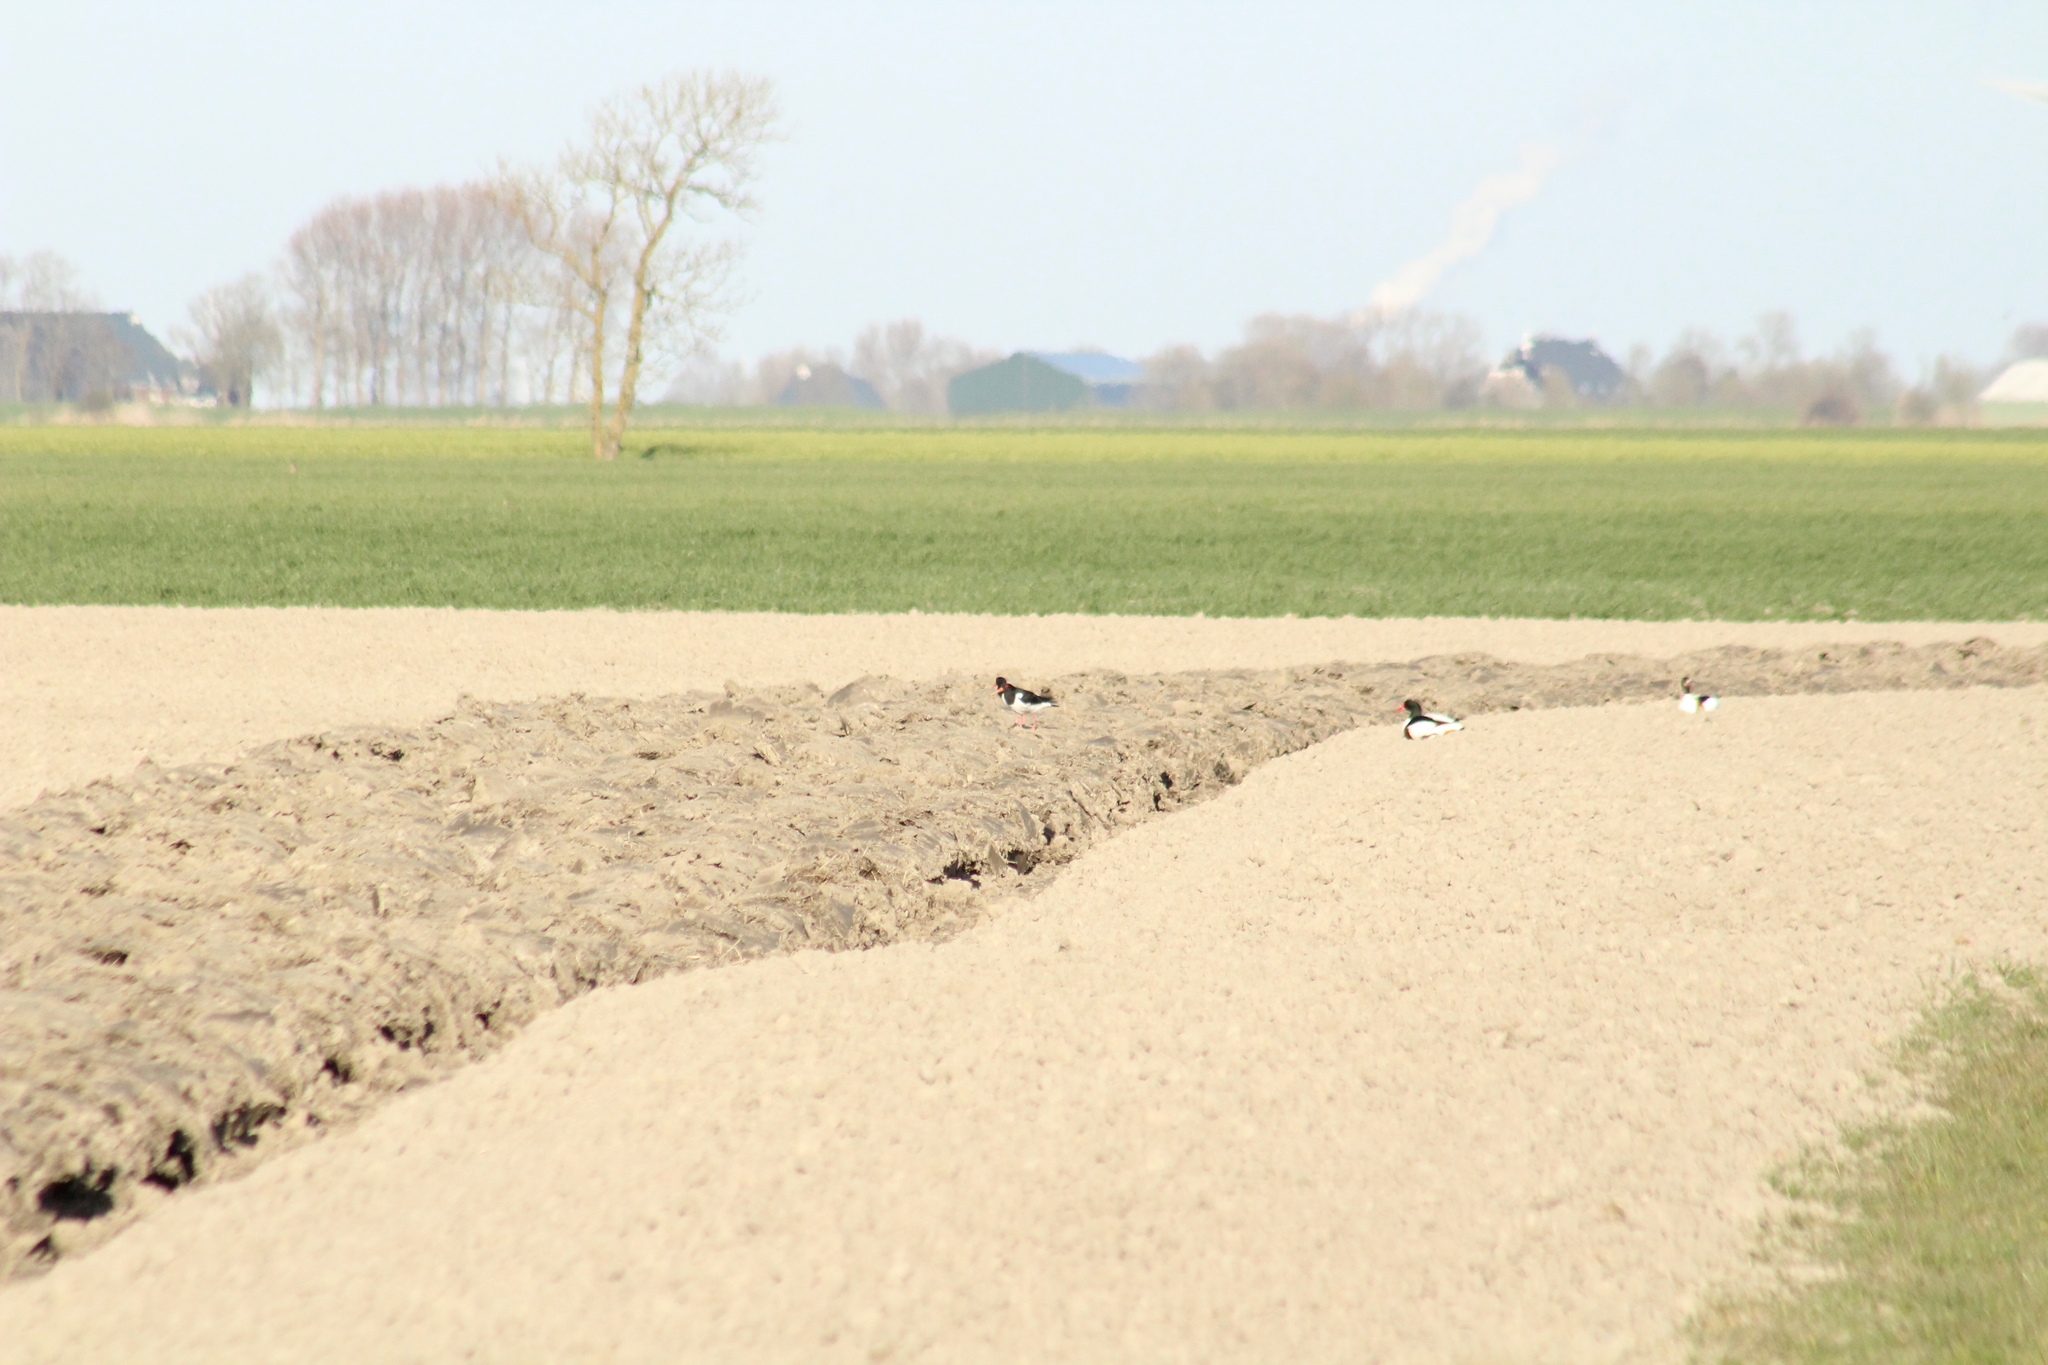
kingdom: Animalia
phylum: Chordata
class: Aves
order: Charadriiformes
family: Haematopodidae
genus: Haematopus
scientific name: Haematopus ostralegus
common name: Eurasian oystercatcher
